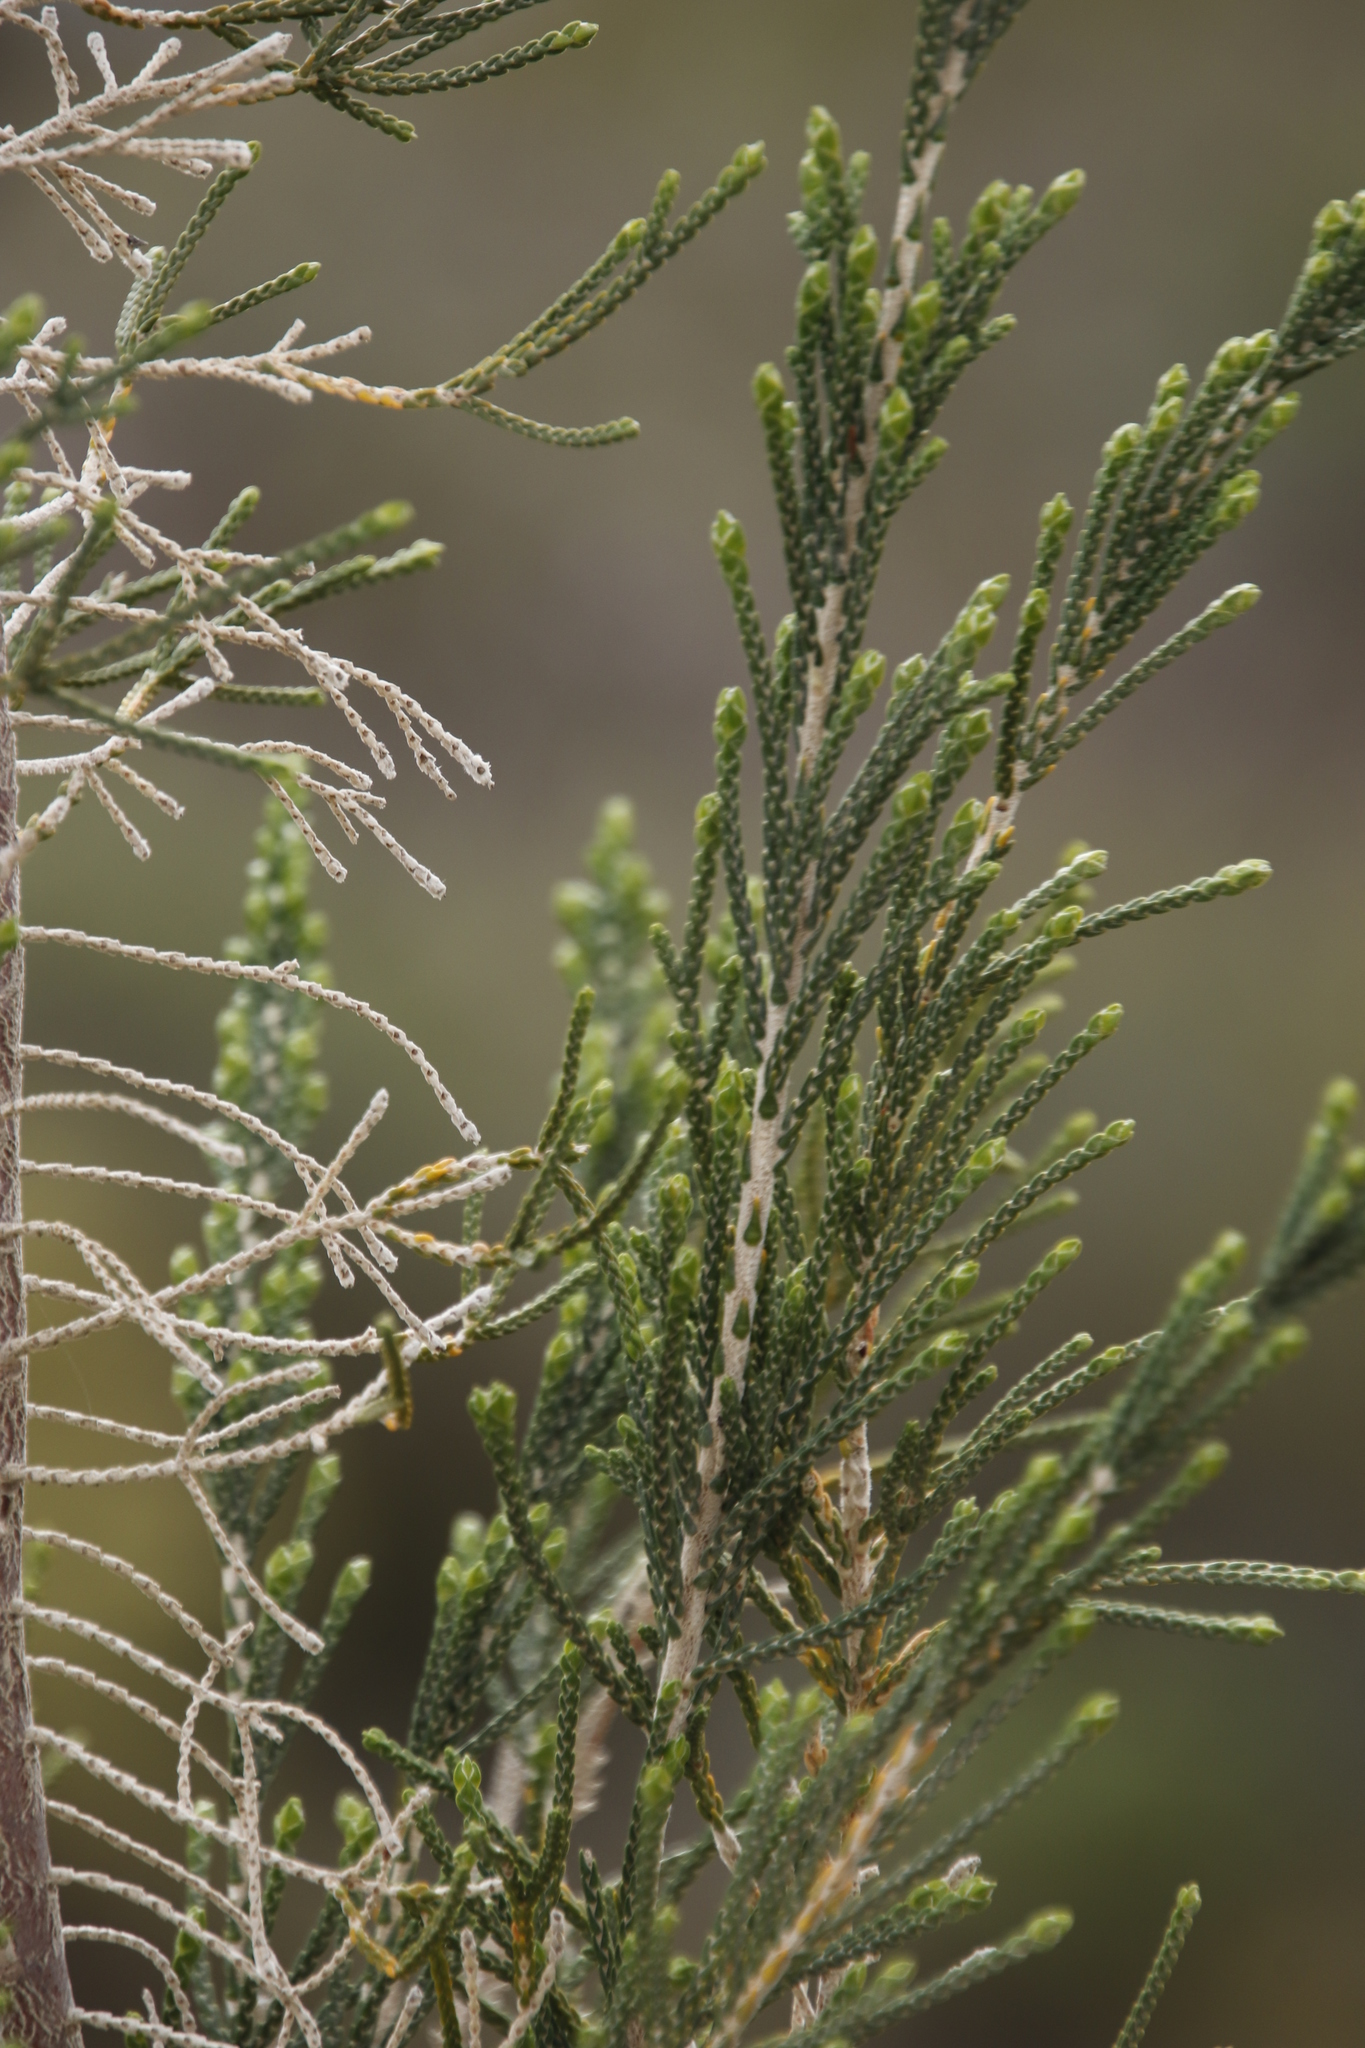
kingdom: Plantae
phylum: Tracheophyta
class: Magnoliopsida
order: Malvales
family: Thymelaeaceae
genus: Passerina
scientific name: Passerina rigida
